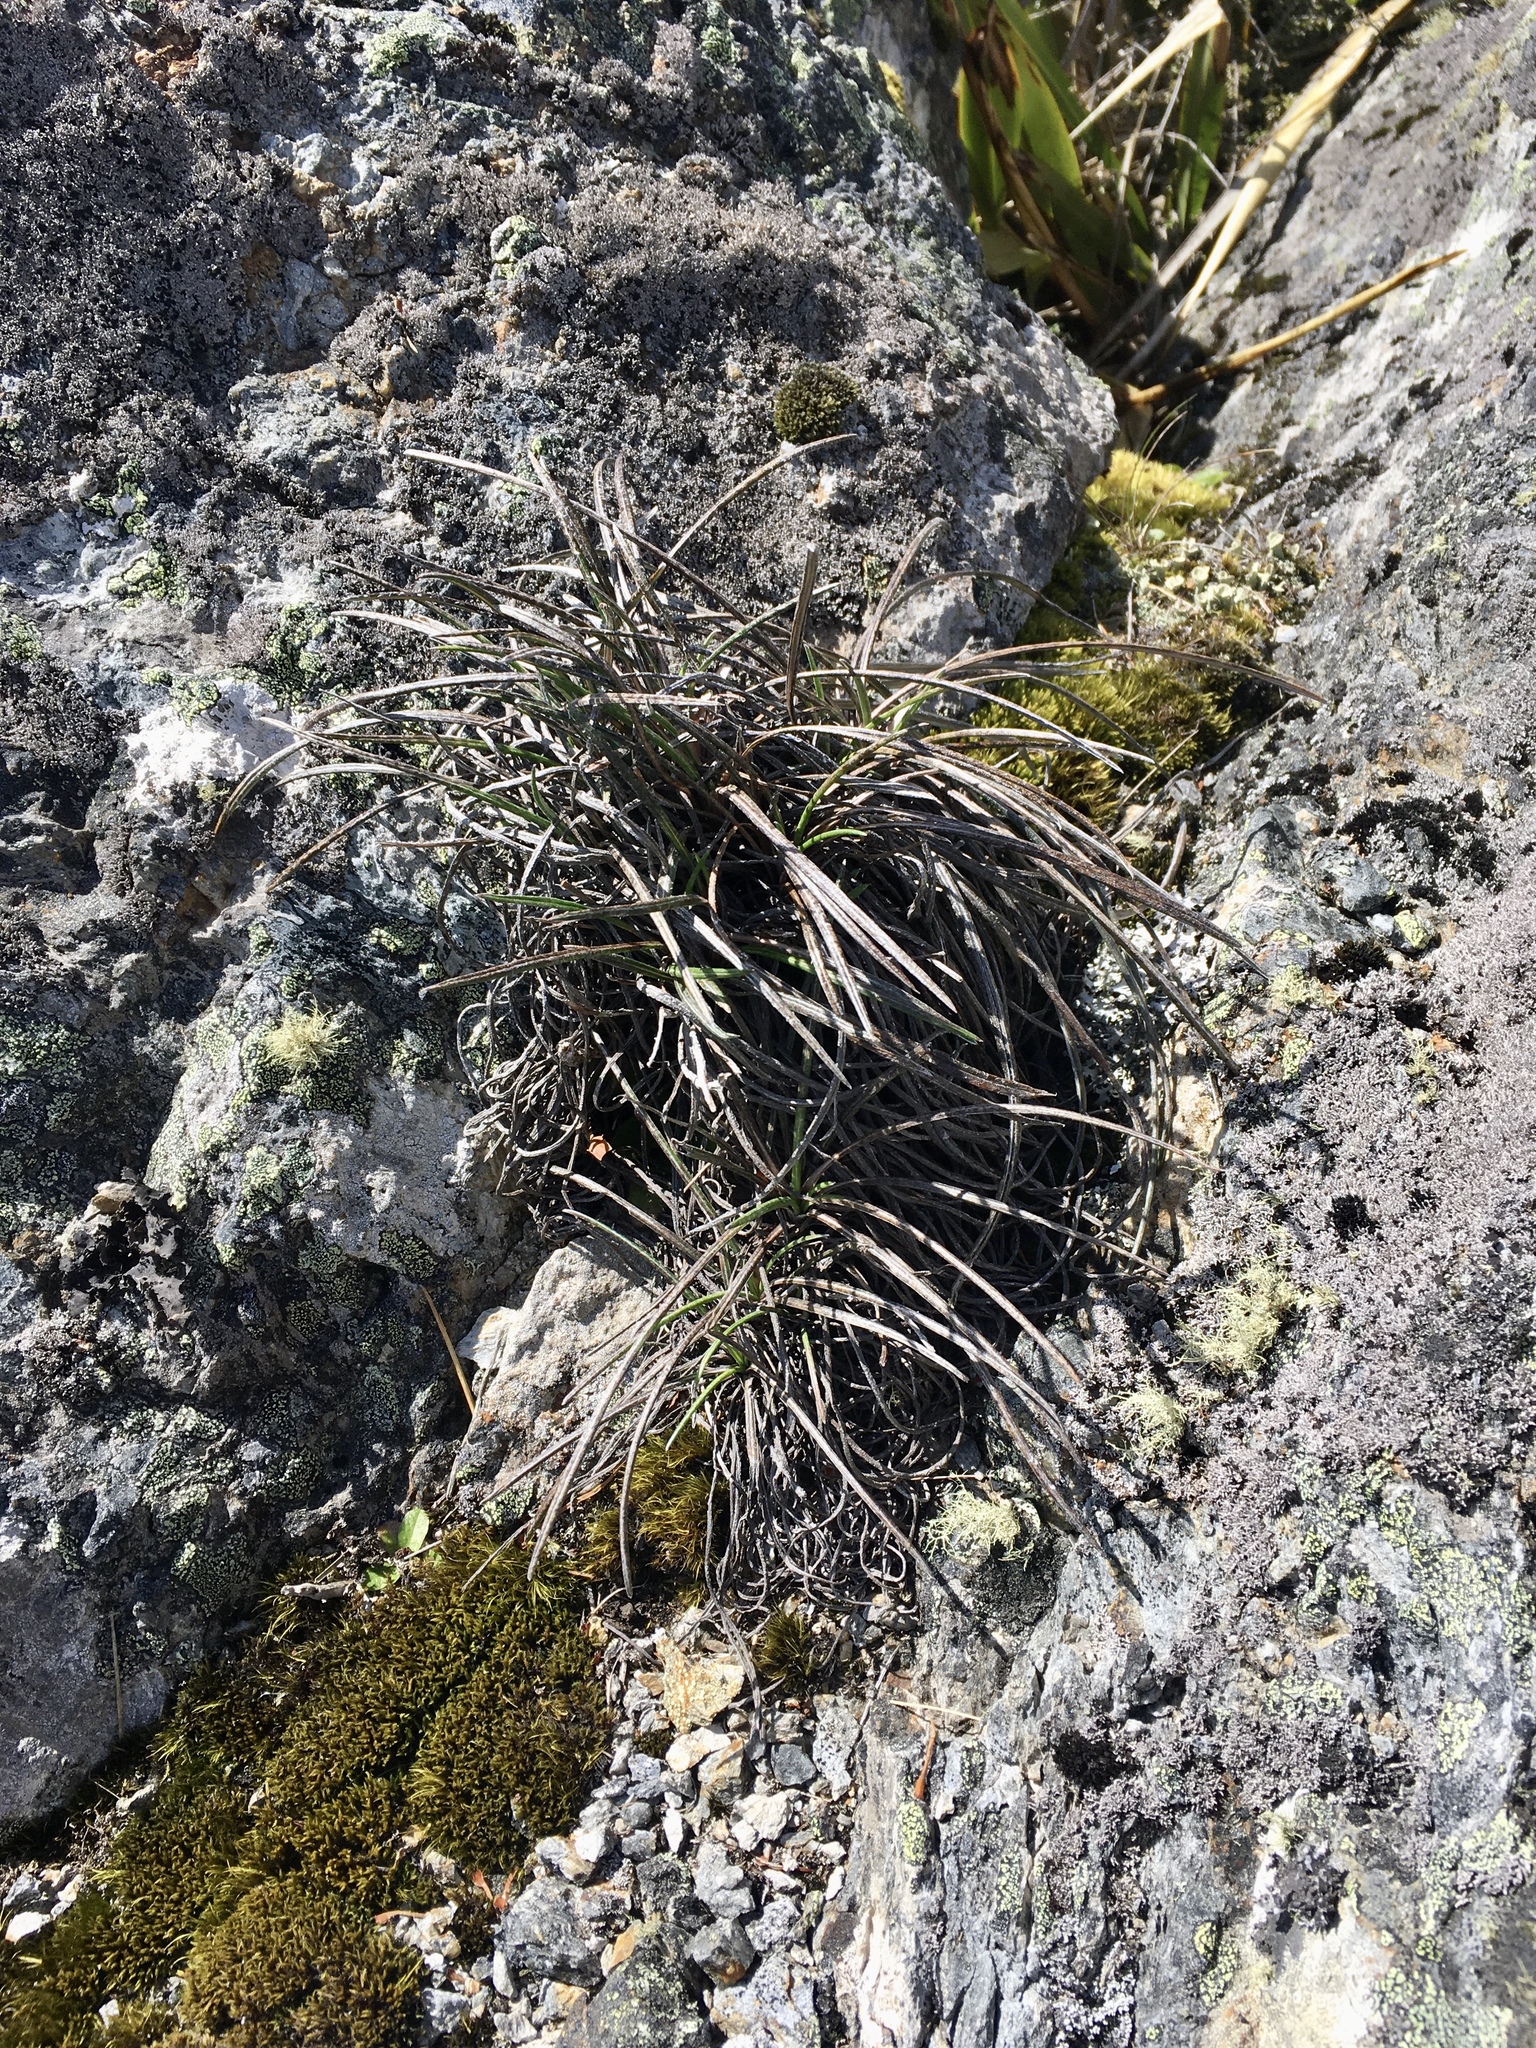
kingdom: Plantae
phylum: Tracheophyta
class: Magnoliopsida
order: Asterales
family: Asteraceae
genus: Celmisia
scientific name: Celmisia gracilenta
